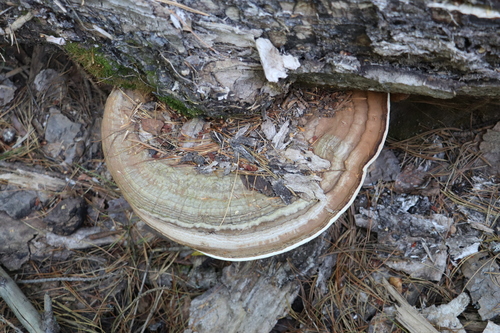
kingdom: Fungi
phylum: Basidiomycota
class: Agaricomycetes
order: Polyporales
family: Polyporaceae
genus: Ganoderma
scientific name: Ganoderma applanatum
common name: Artist's bracket
